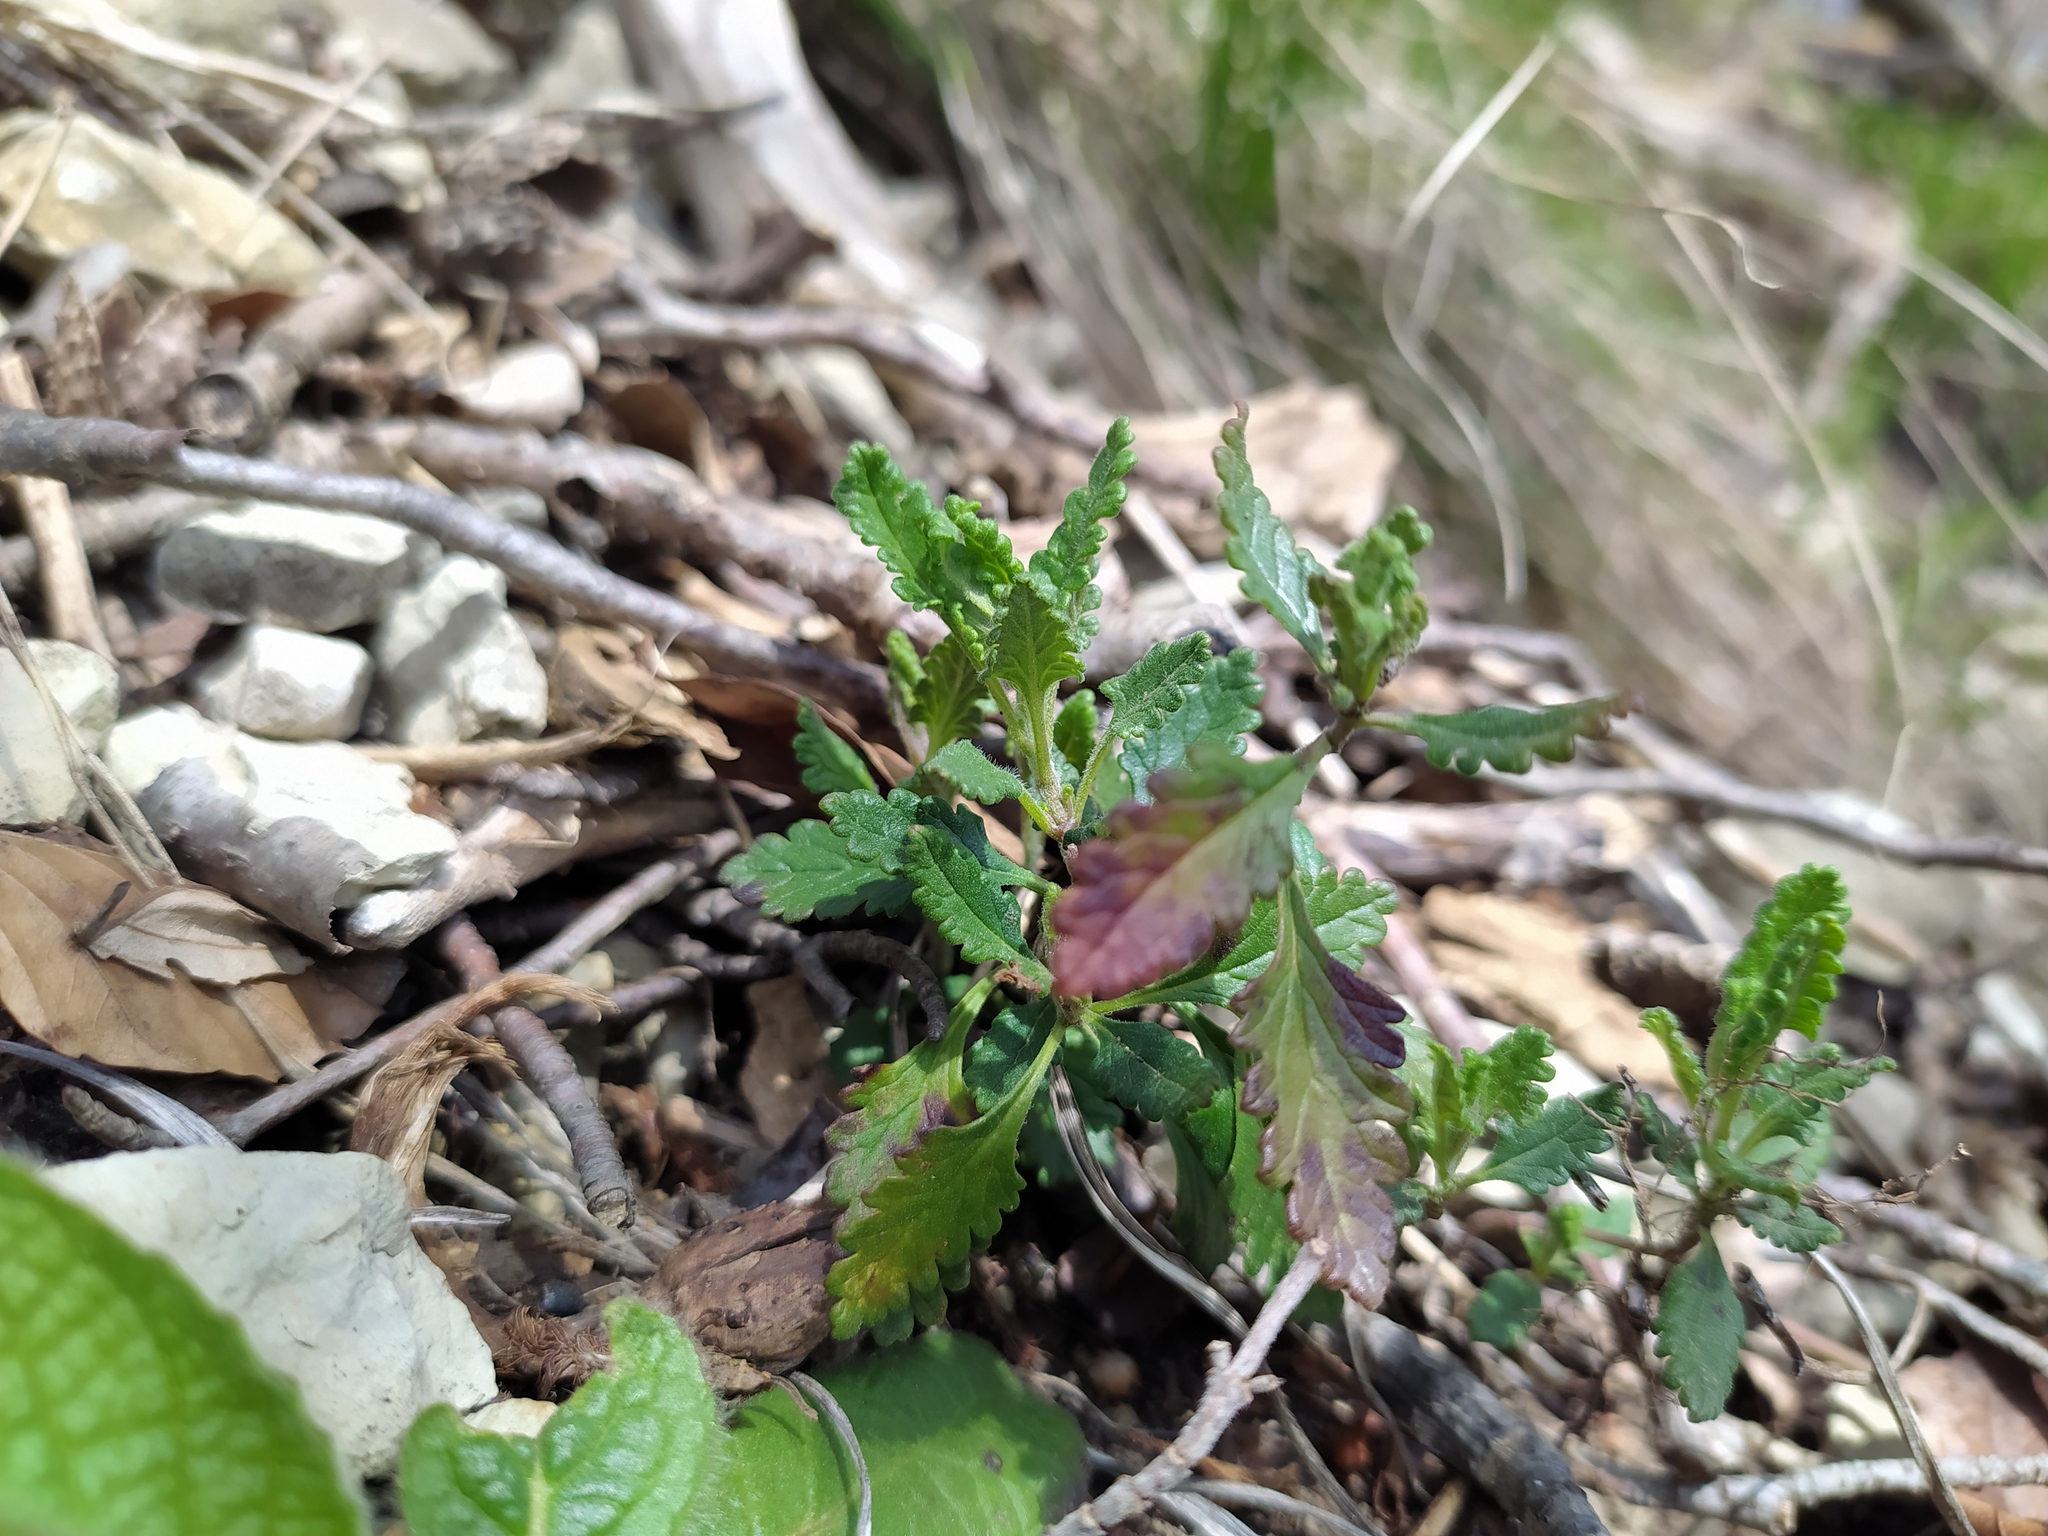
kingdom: Plantae
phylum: Tracheophyta
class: Magnoliopsida
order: Lamiales
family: Lamiaceae
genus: Teucrium
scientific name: Teucrium chamaedrys
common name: Wall germander
